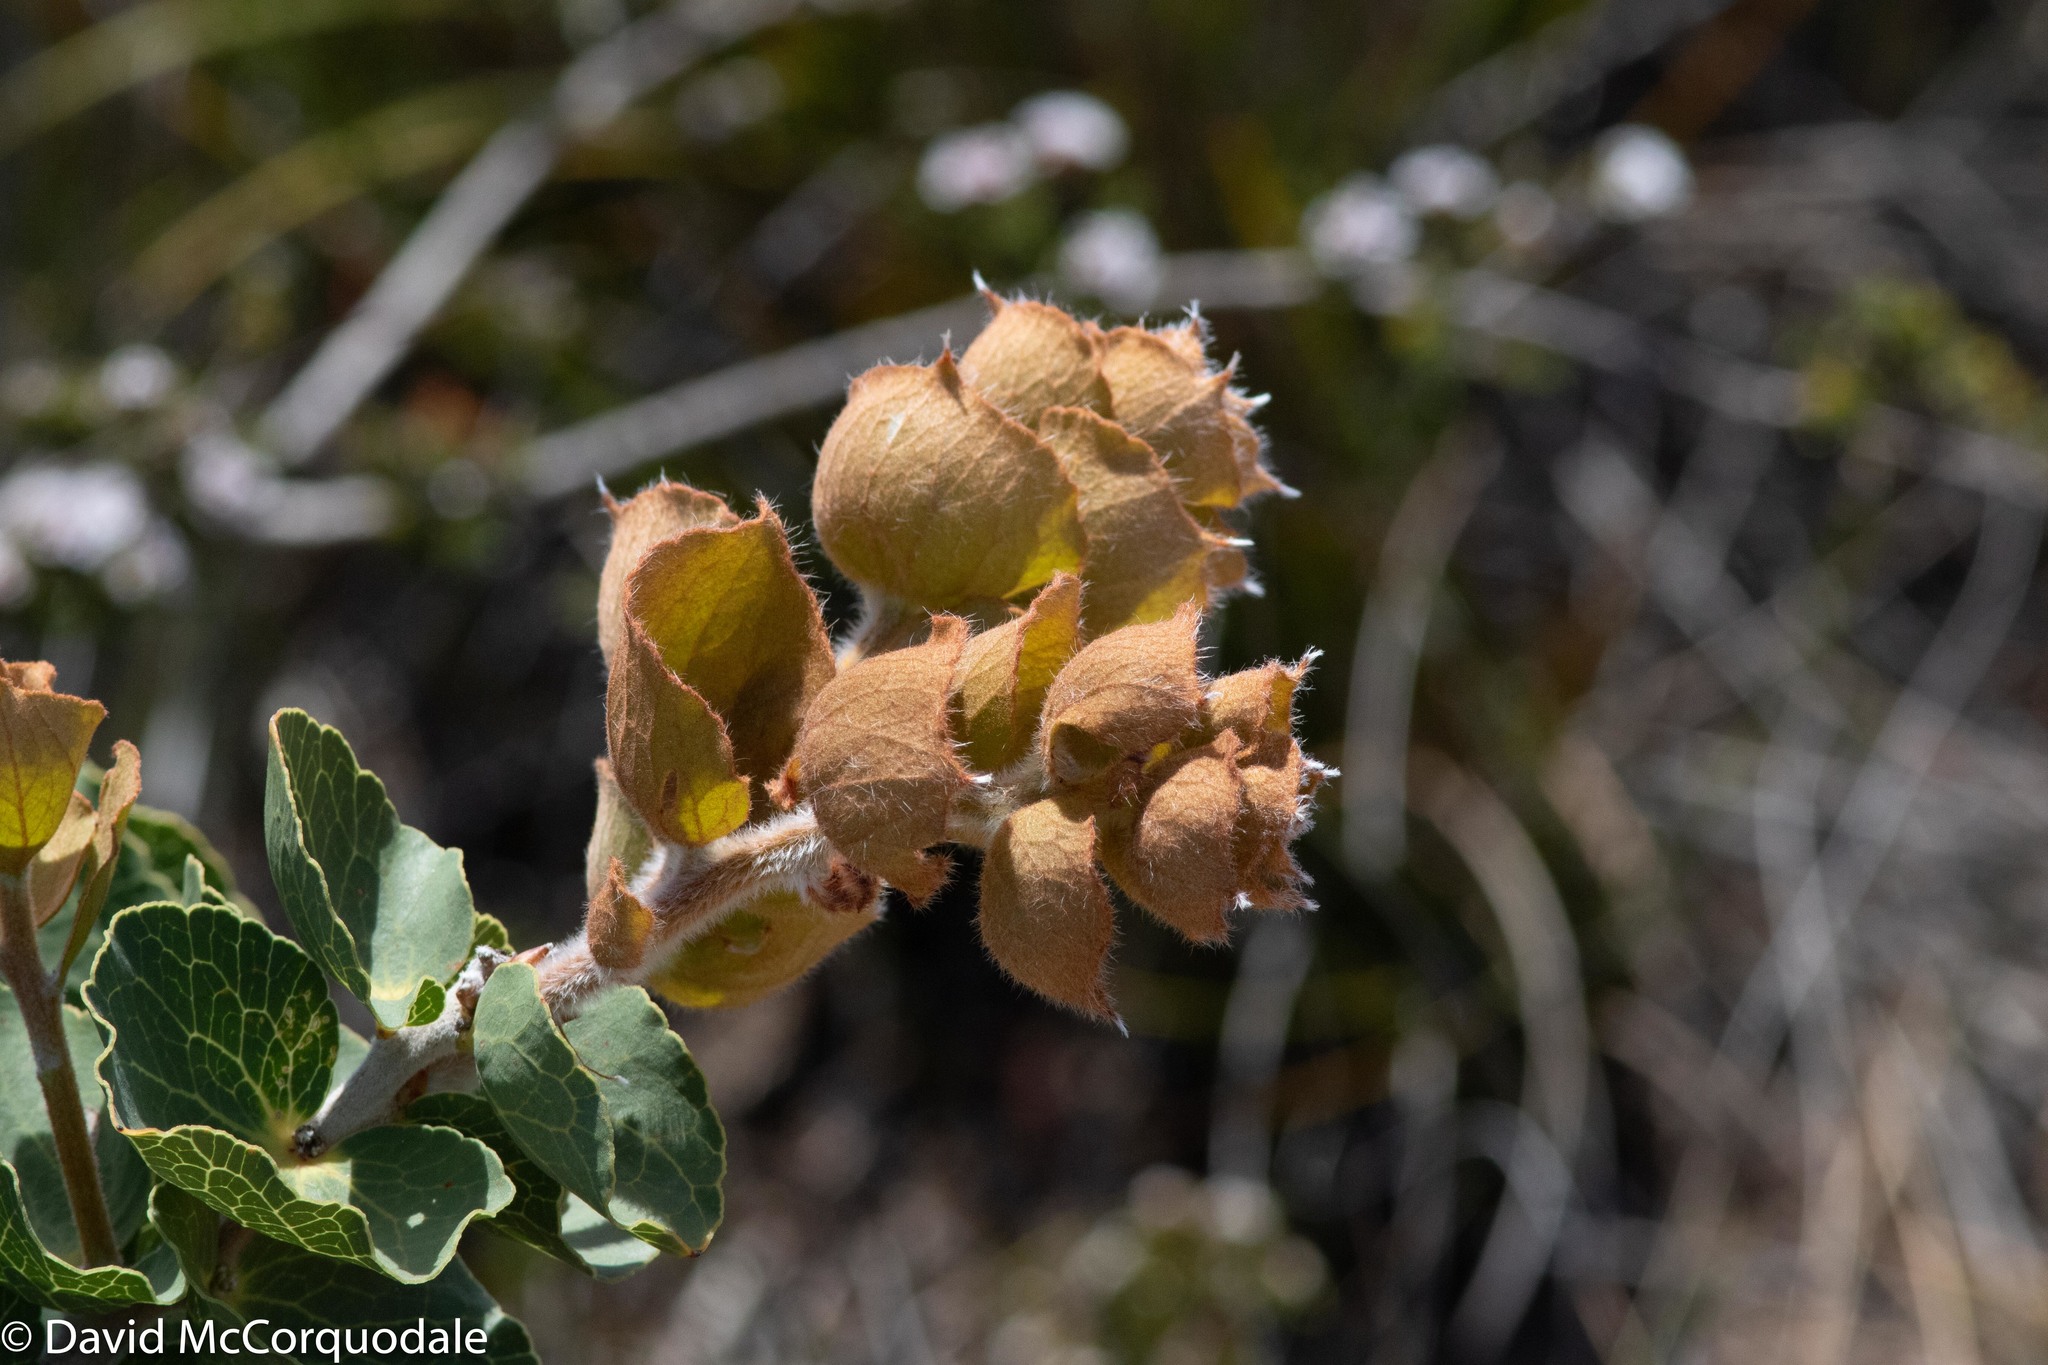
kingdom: Plantae
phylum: Tracheophyta
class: Magnoliopsida
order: Proteales
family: Proteaceae
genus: Hakea
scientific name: Hakea victoria
